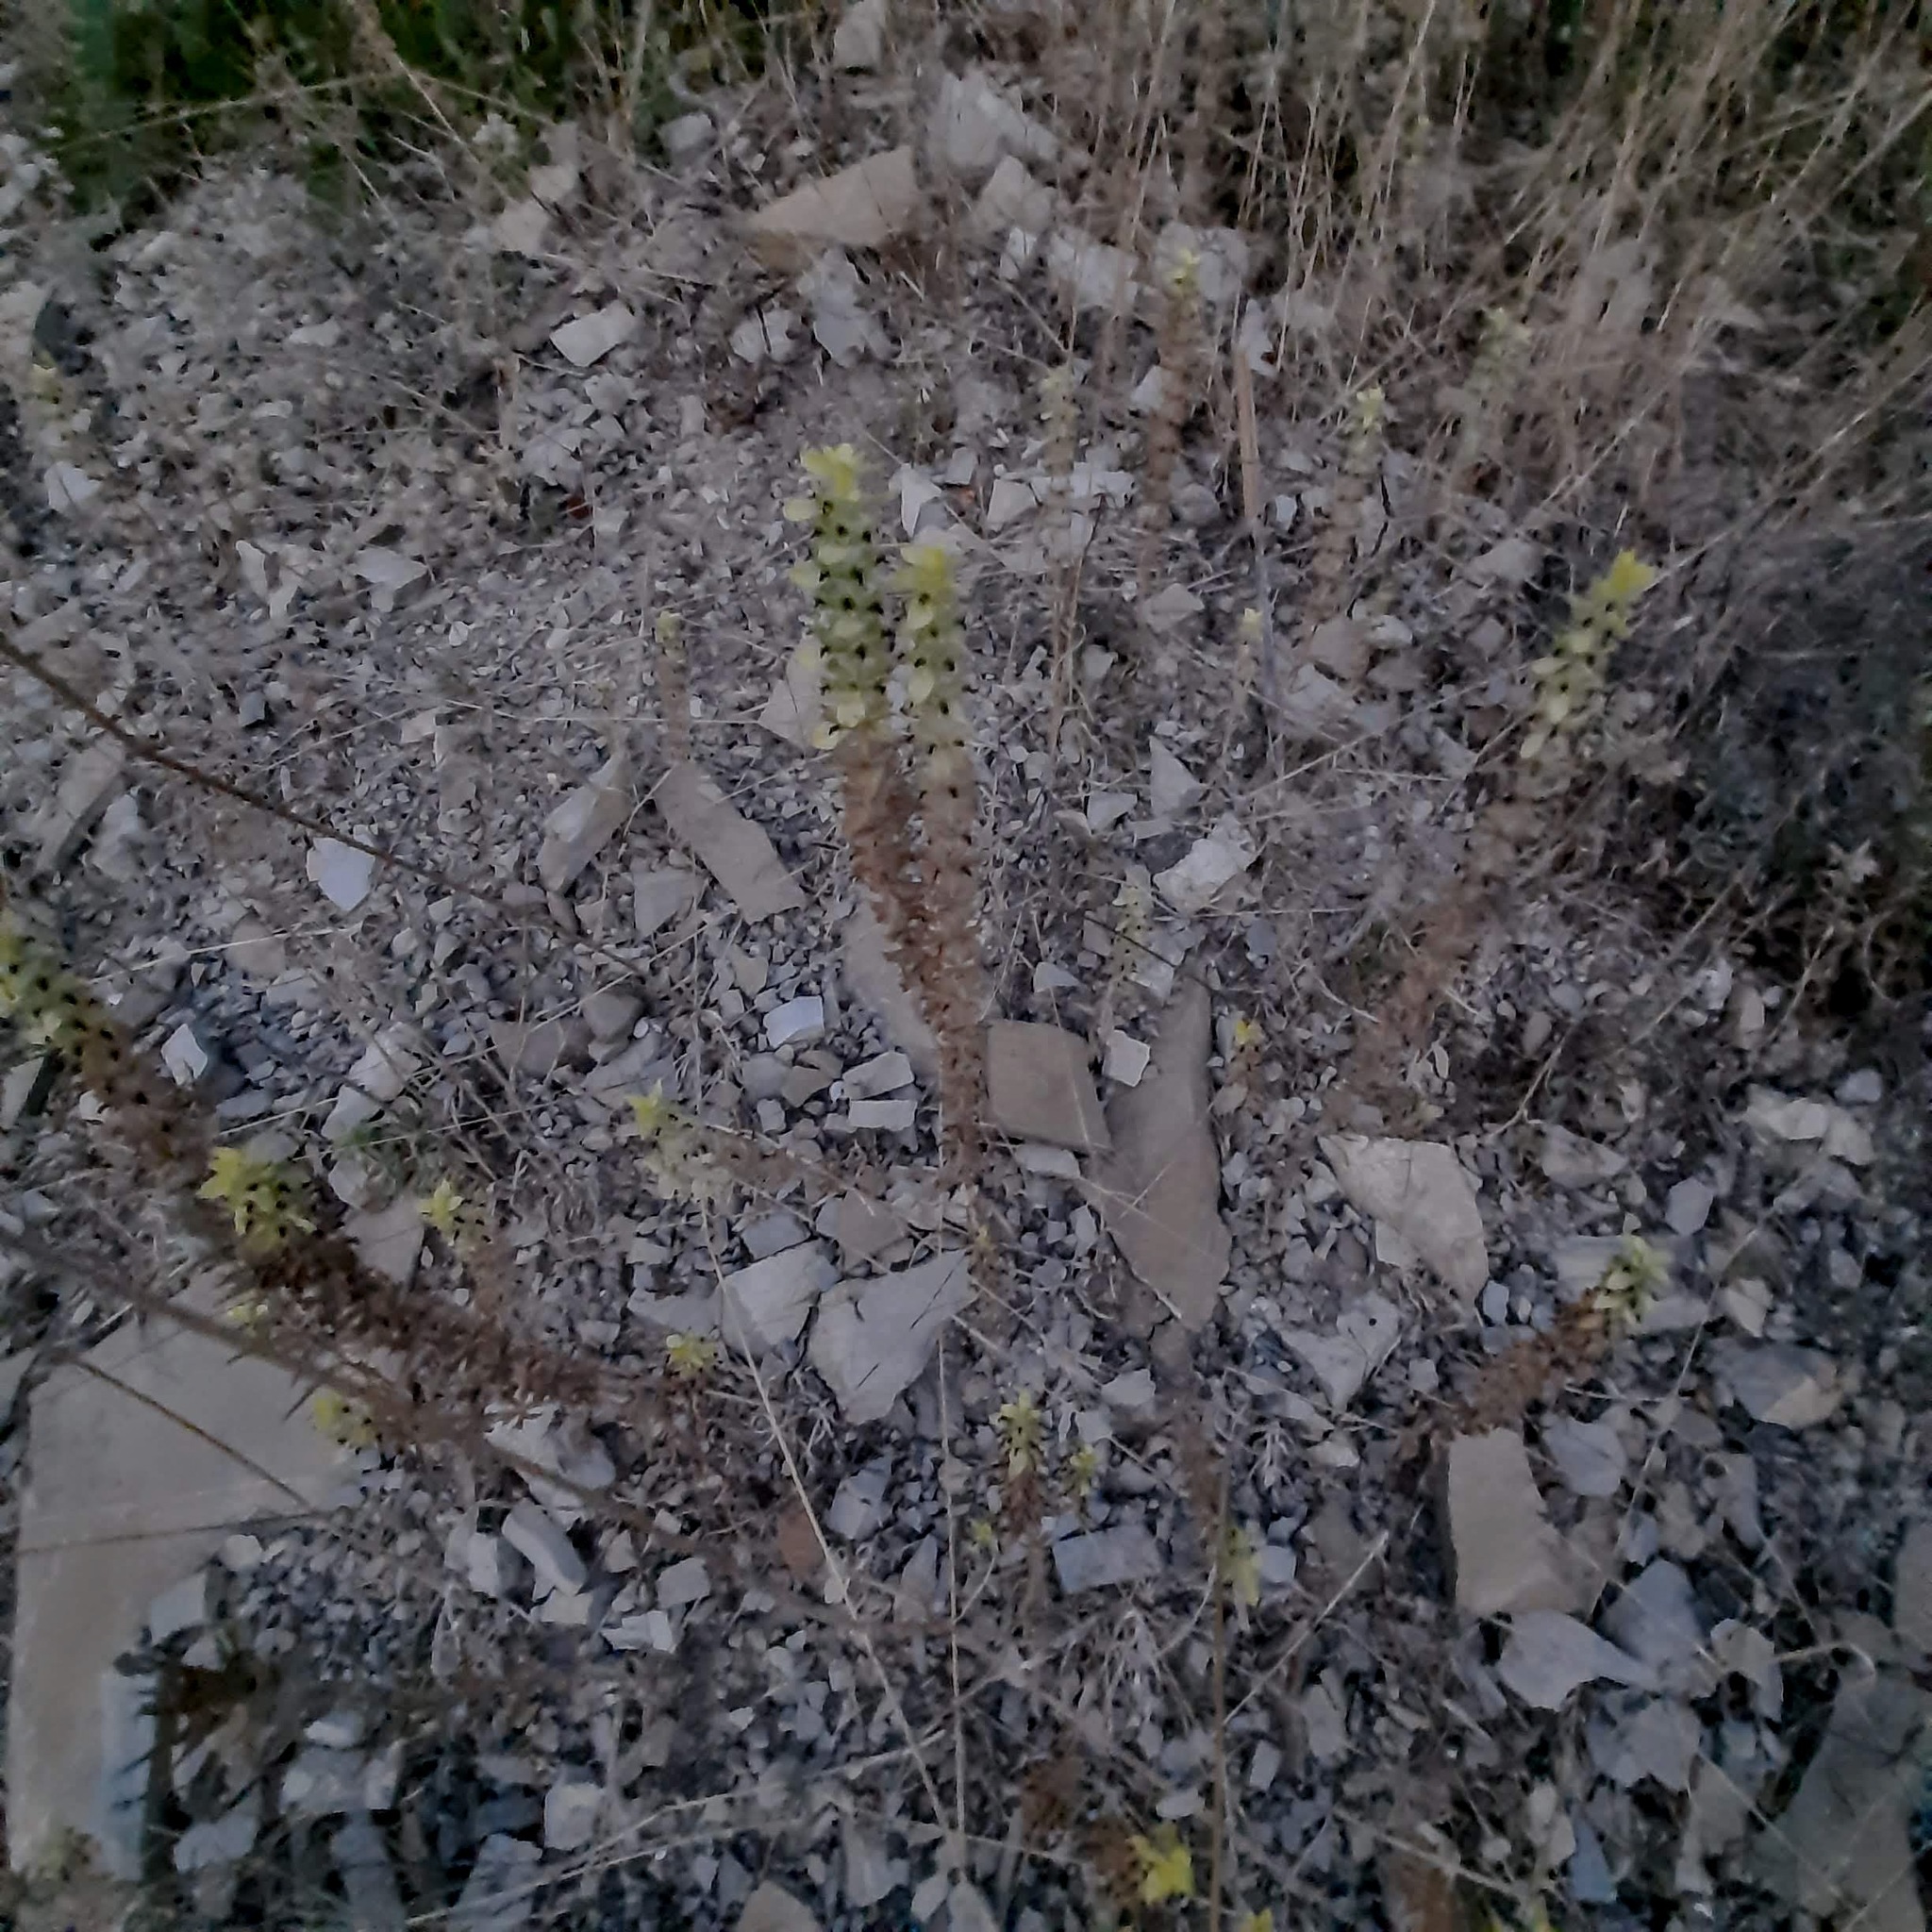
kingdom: Plantae
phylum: Tracheophyta
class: Magnoliopsida
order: Lamiales
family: Lamiaceae
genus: Sideritis
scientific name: Sideritis montana
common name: Mountain ironwort
